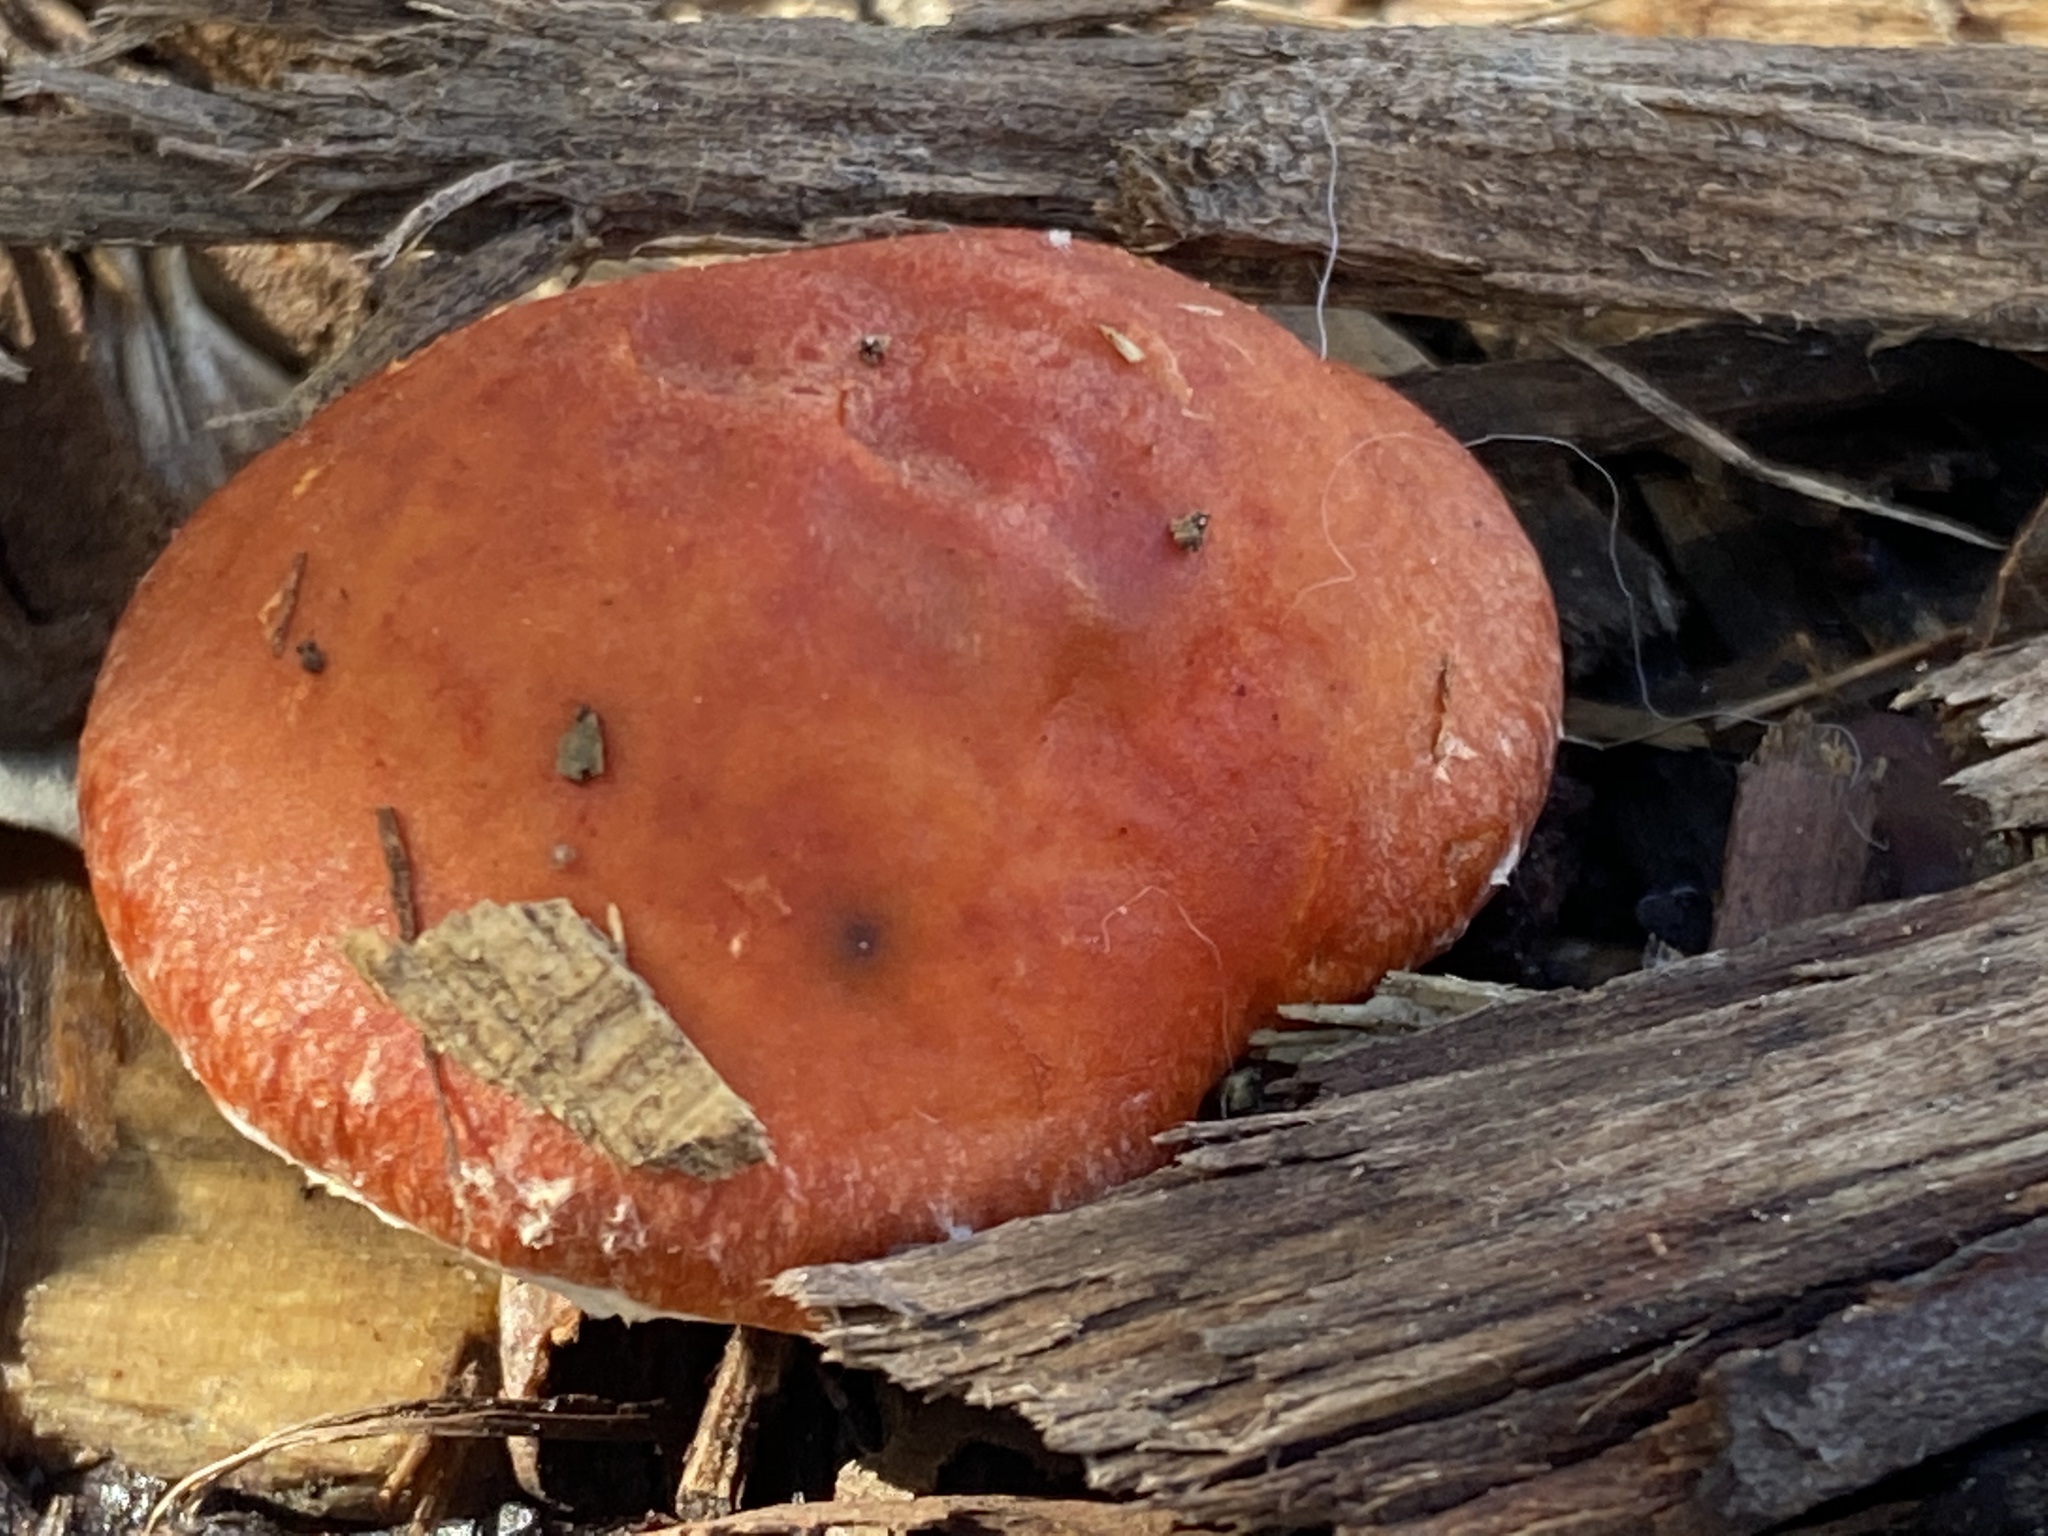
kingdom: Fungi
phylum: Basidiomycota
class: Agaricomycetes
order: Agaricales
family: Strophariaceae
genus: Leratiomyces
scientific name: Leratiomyces ceres
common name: Redlead roundhead
